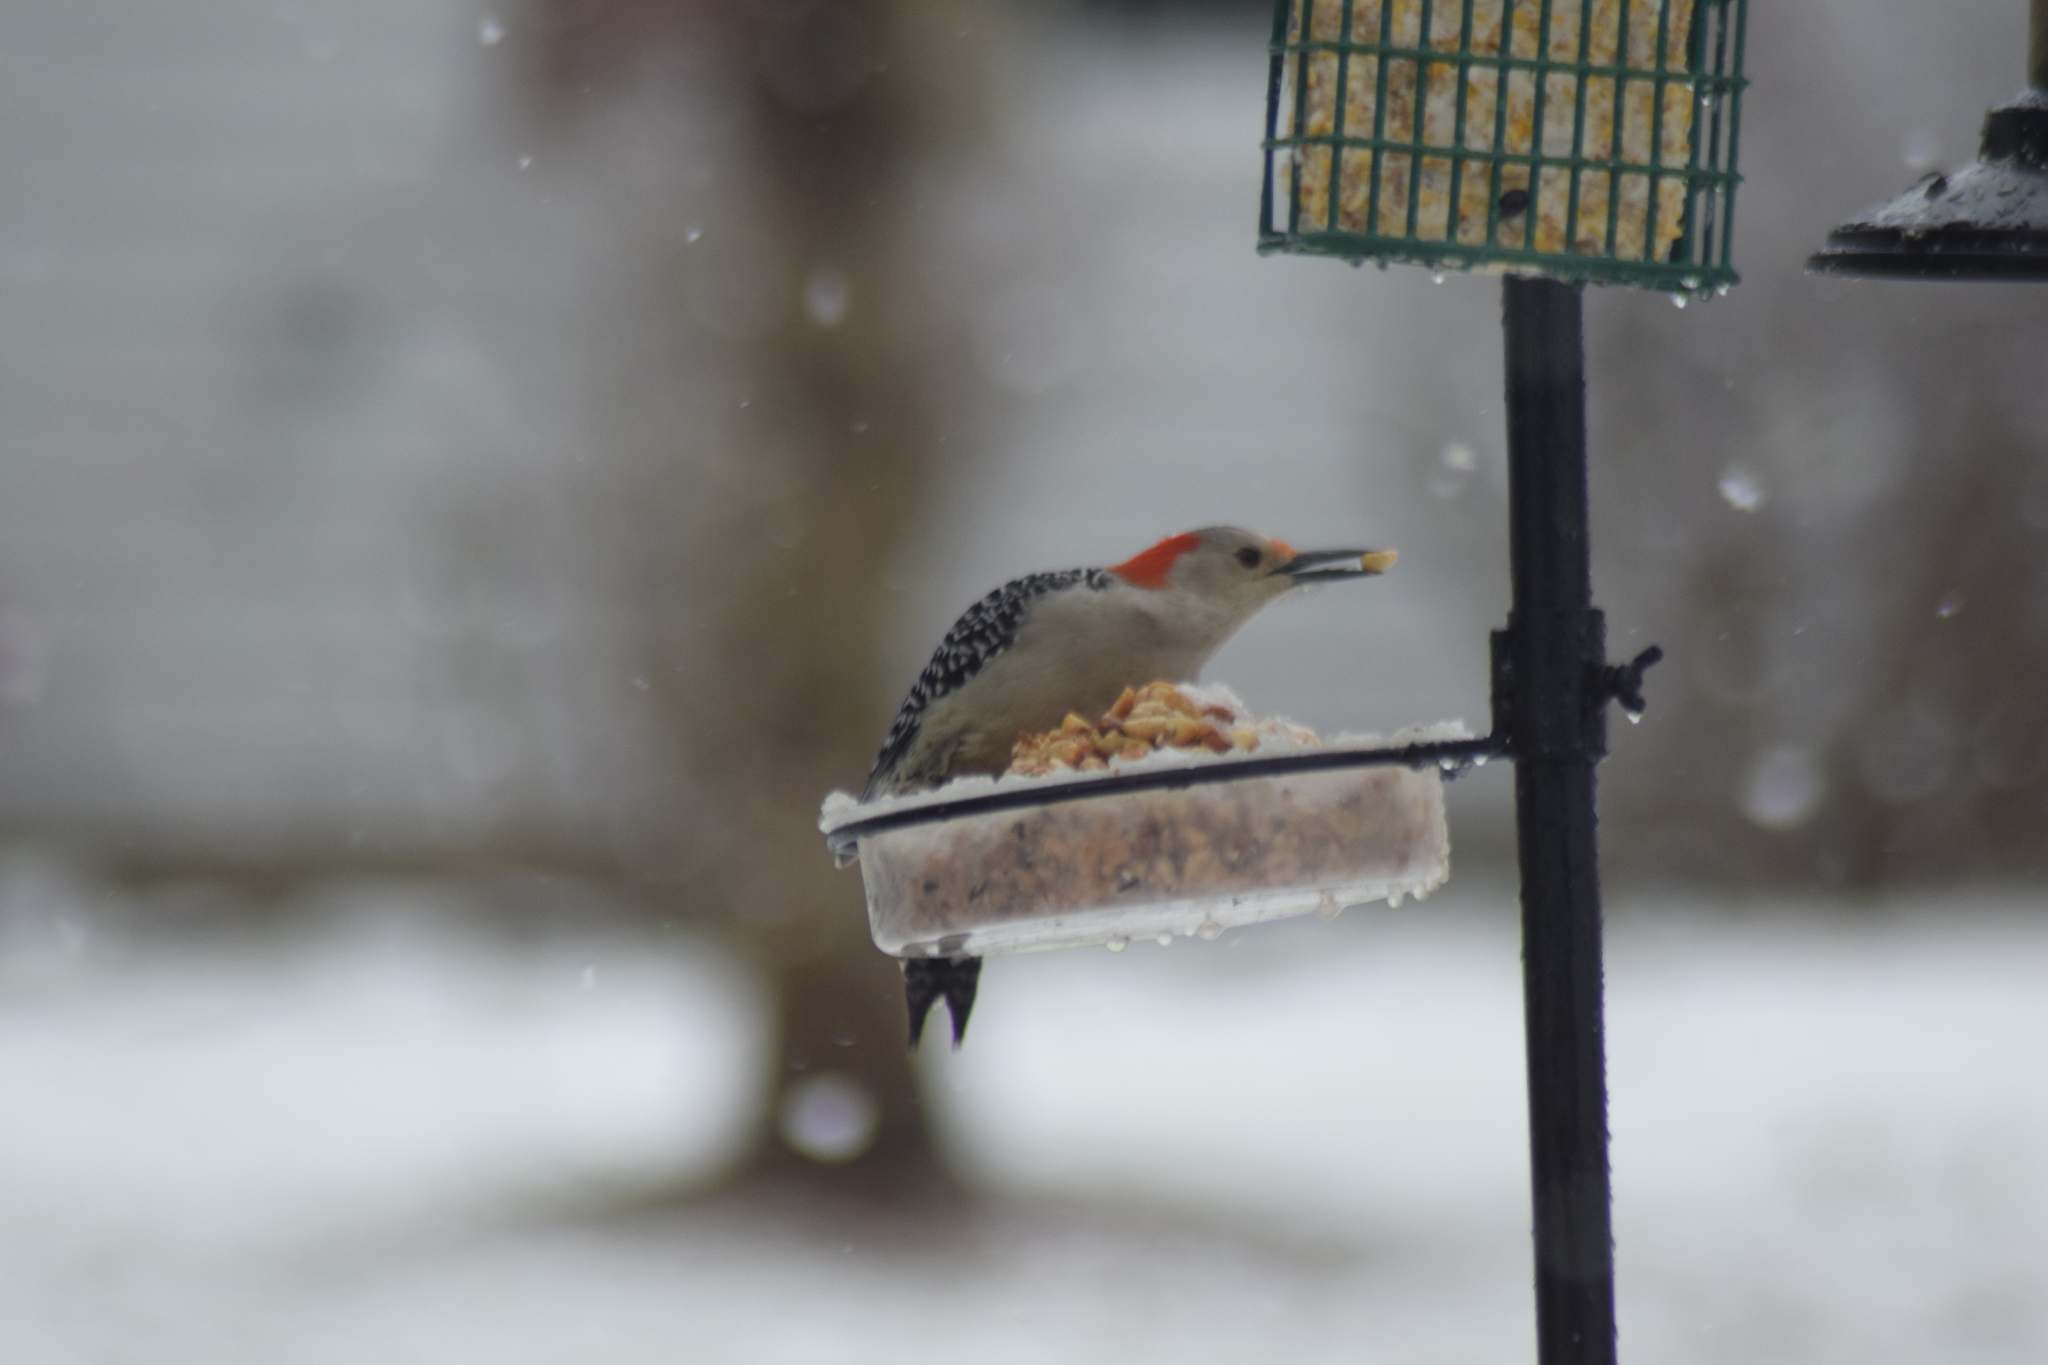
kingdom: Animalia
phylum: Chordata
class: Aves
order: Piciformes
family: Picidae
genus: Melanerpes
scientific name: Melanerpes carolinus
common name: Red-bellied woodpecker
